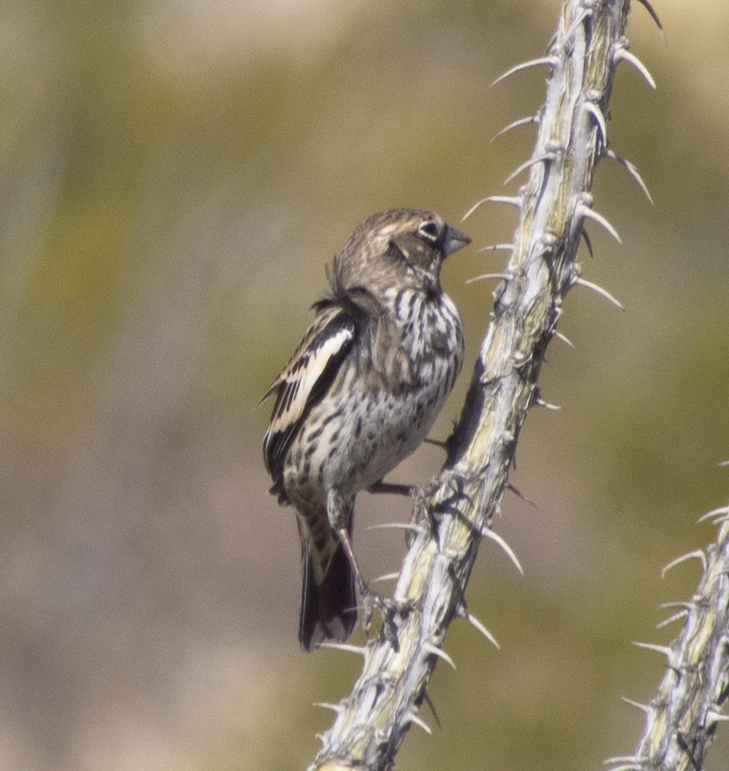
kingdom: Animalia
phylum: Chordata
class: Aves
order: Passeriformes
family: Passerellidae
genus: Calamospiza
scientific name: Calamospiza melanocorys
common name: Lark bunting
